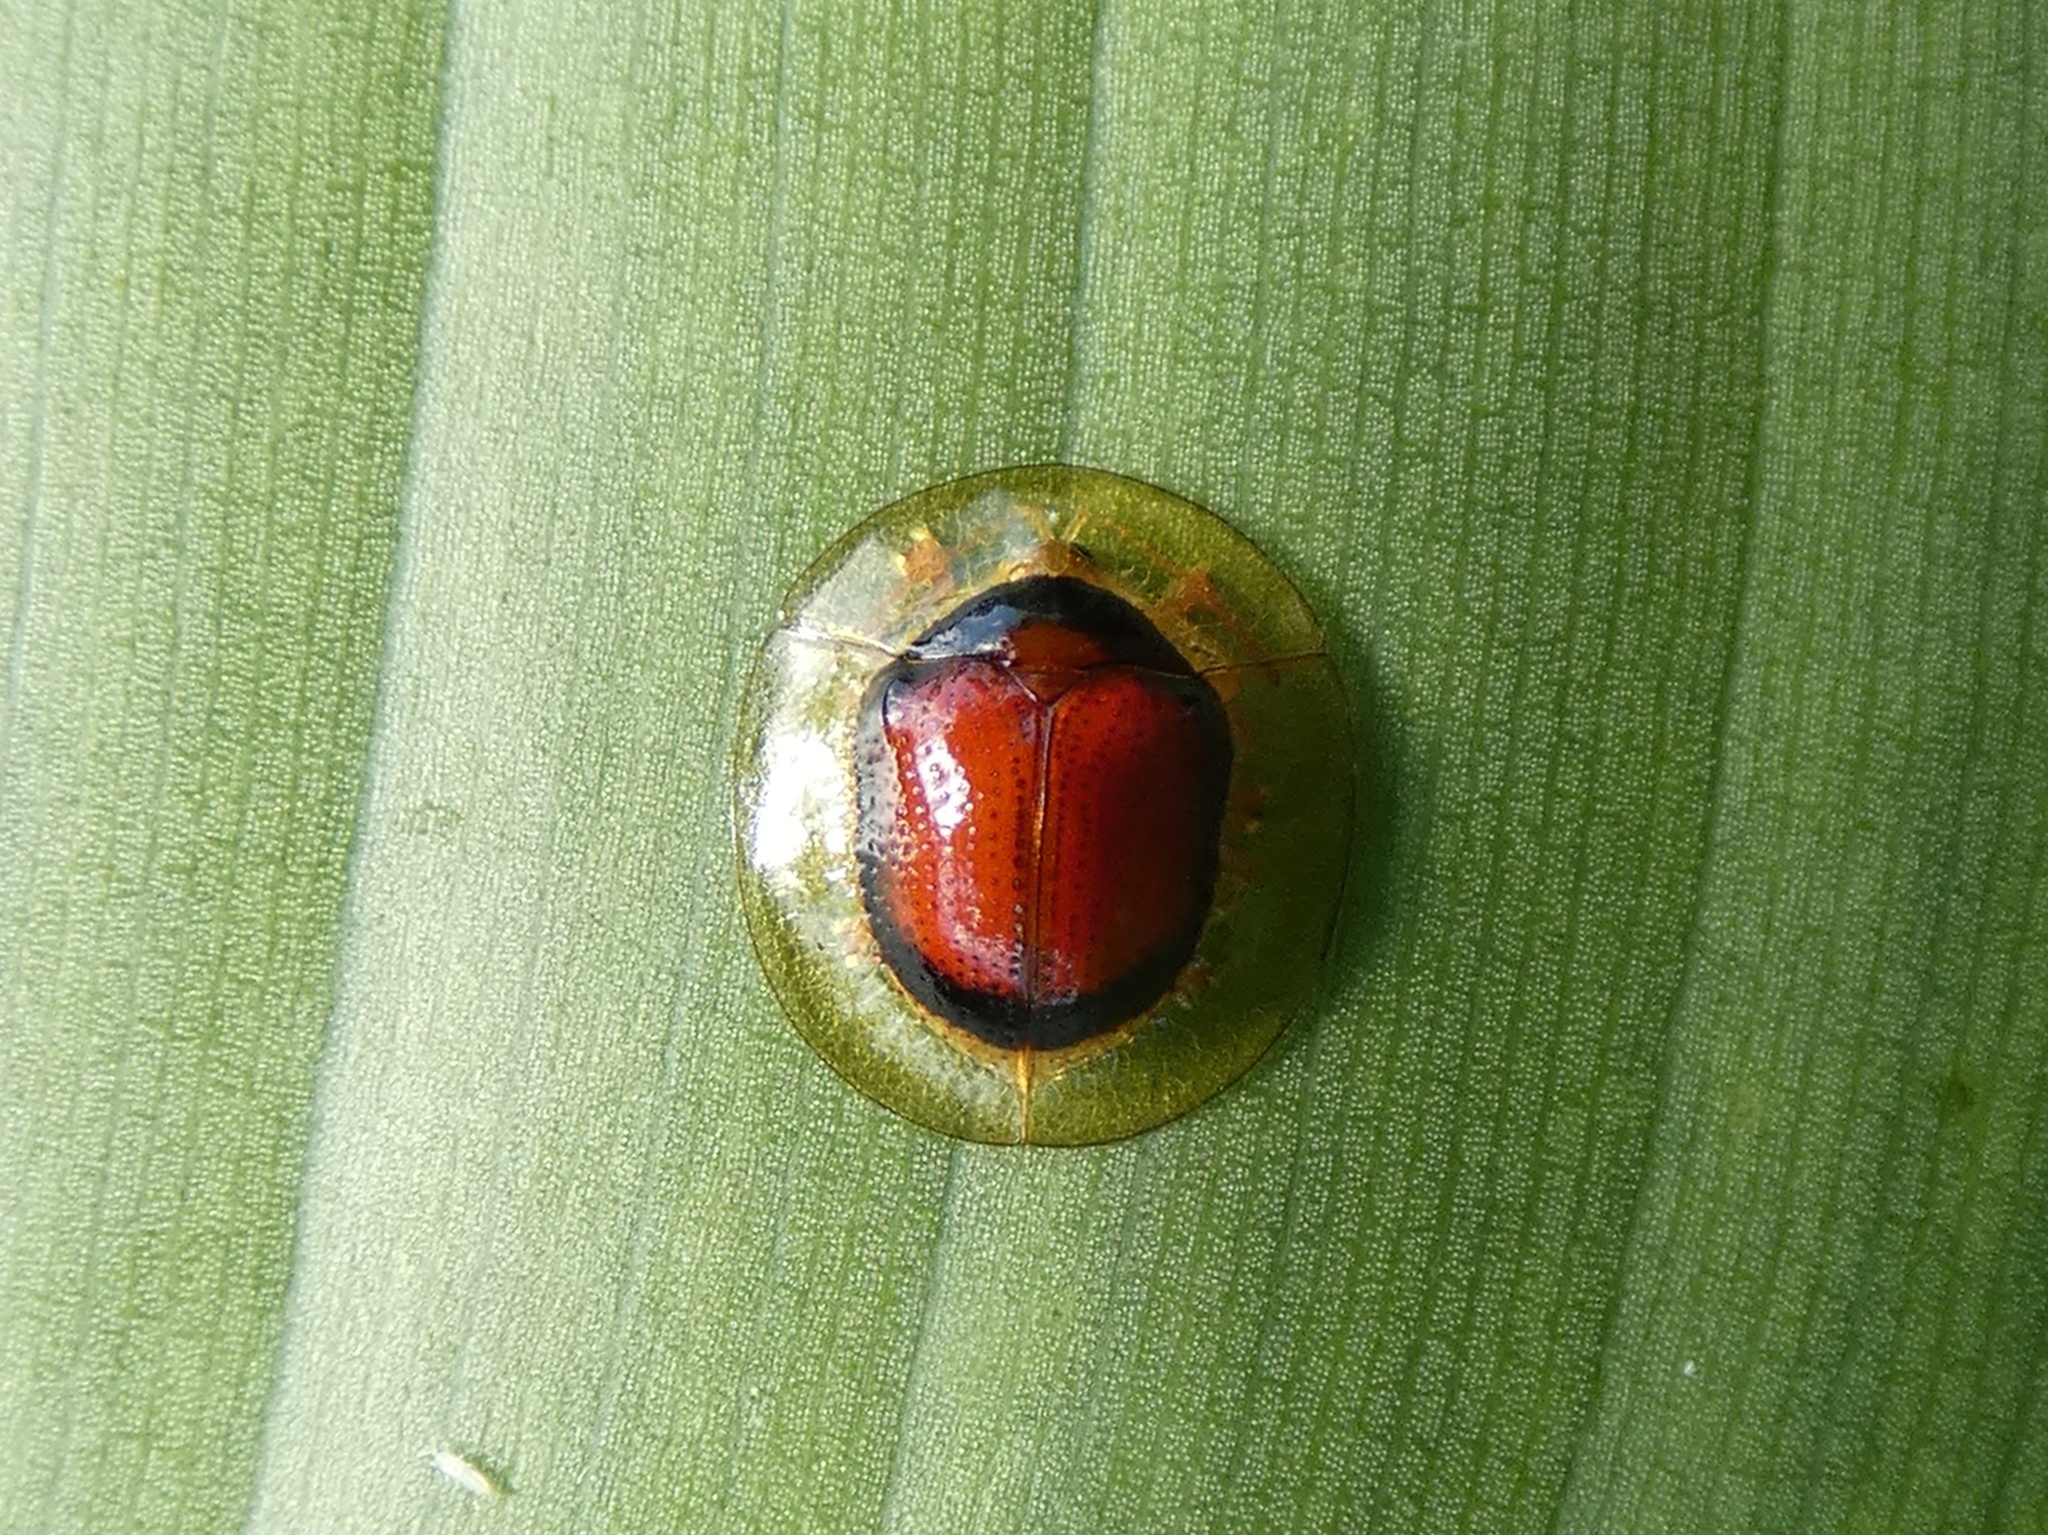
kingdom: Animalia
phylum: Arthropoda
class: Insecta
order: Coleoptera
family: Chrysomelidae
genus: Cyclocassis
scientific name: Cyclocassis circulata
